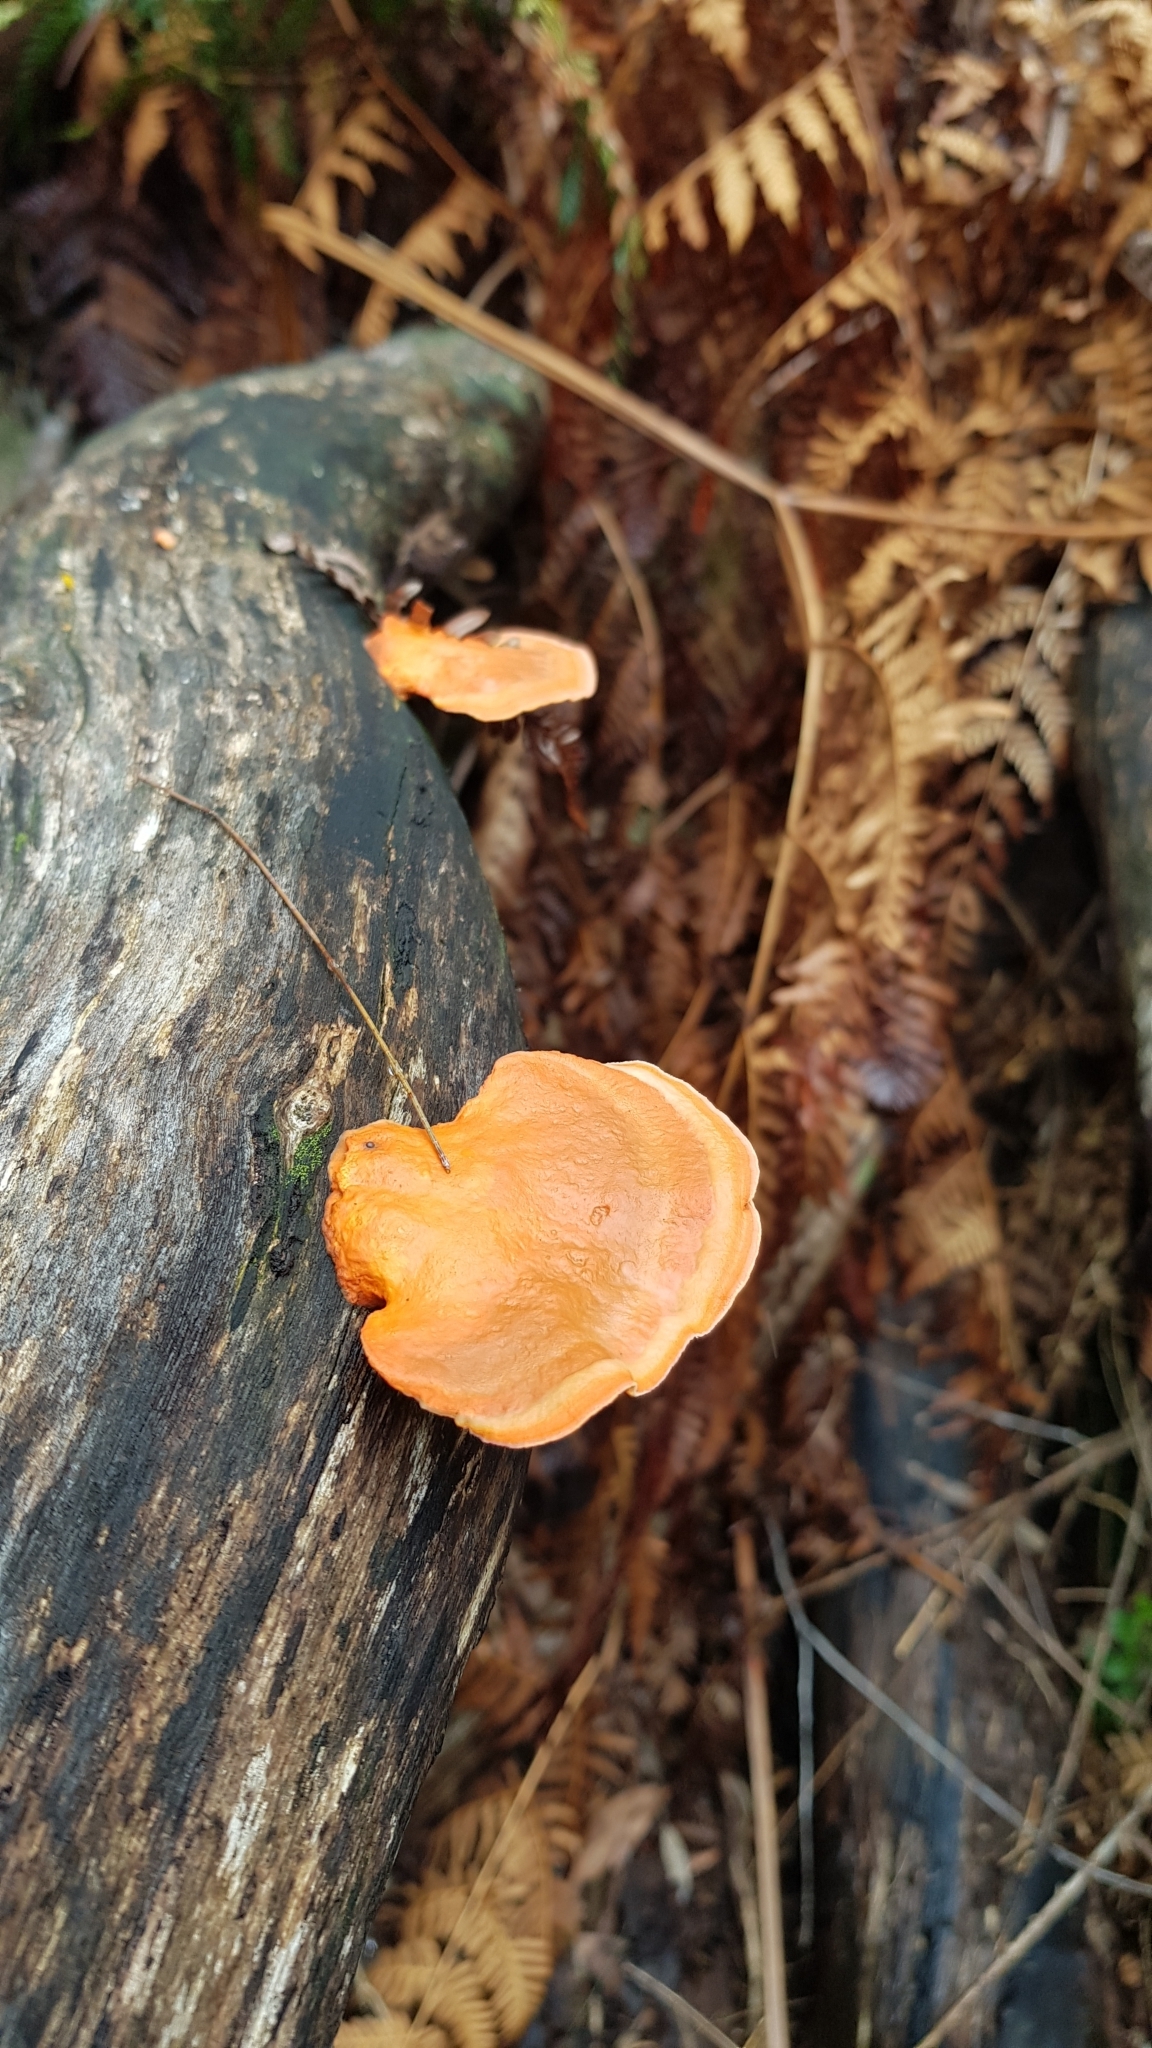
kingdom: Fungi
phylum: Basidiomycota
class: Agaricomycetes
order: Polyporales
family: Polyporaceae
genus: Trametes
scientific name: Trametes coccinea
